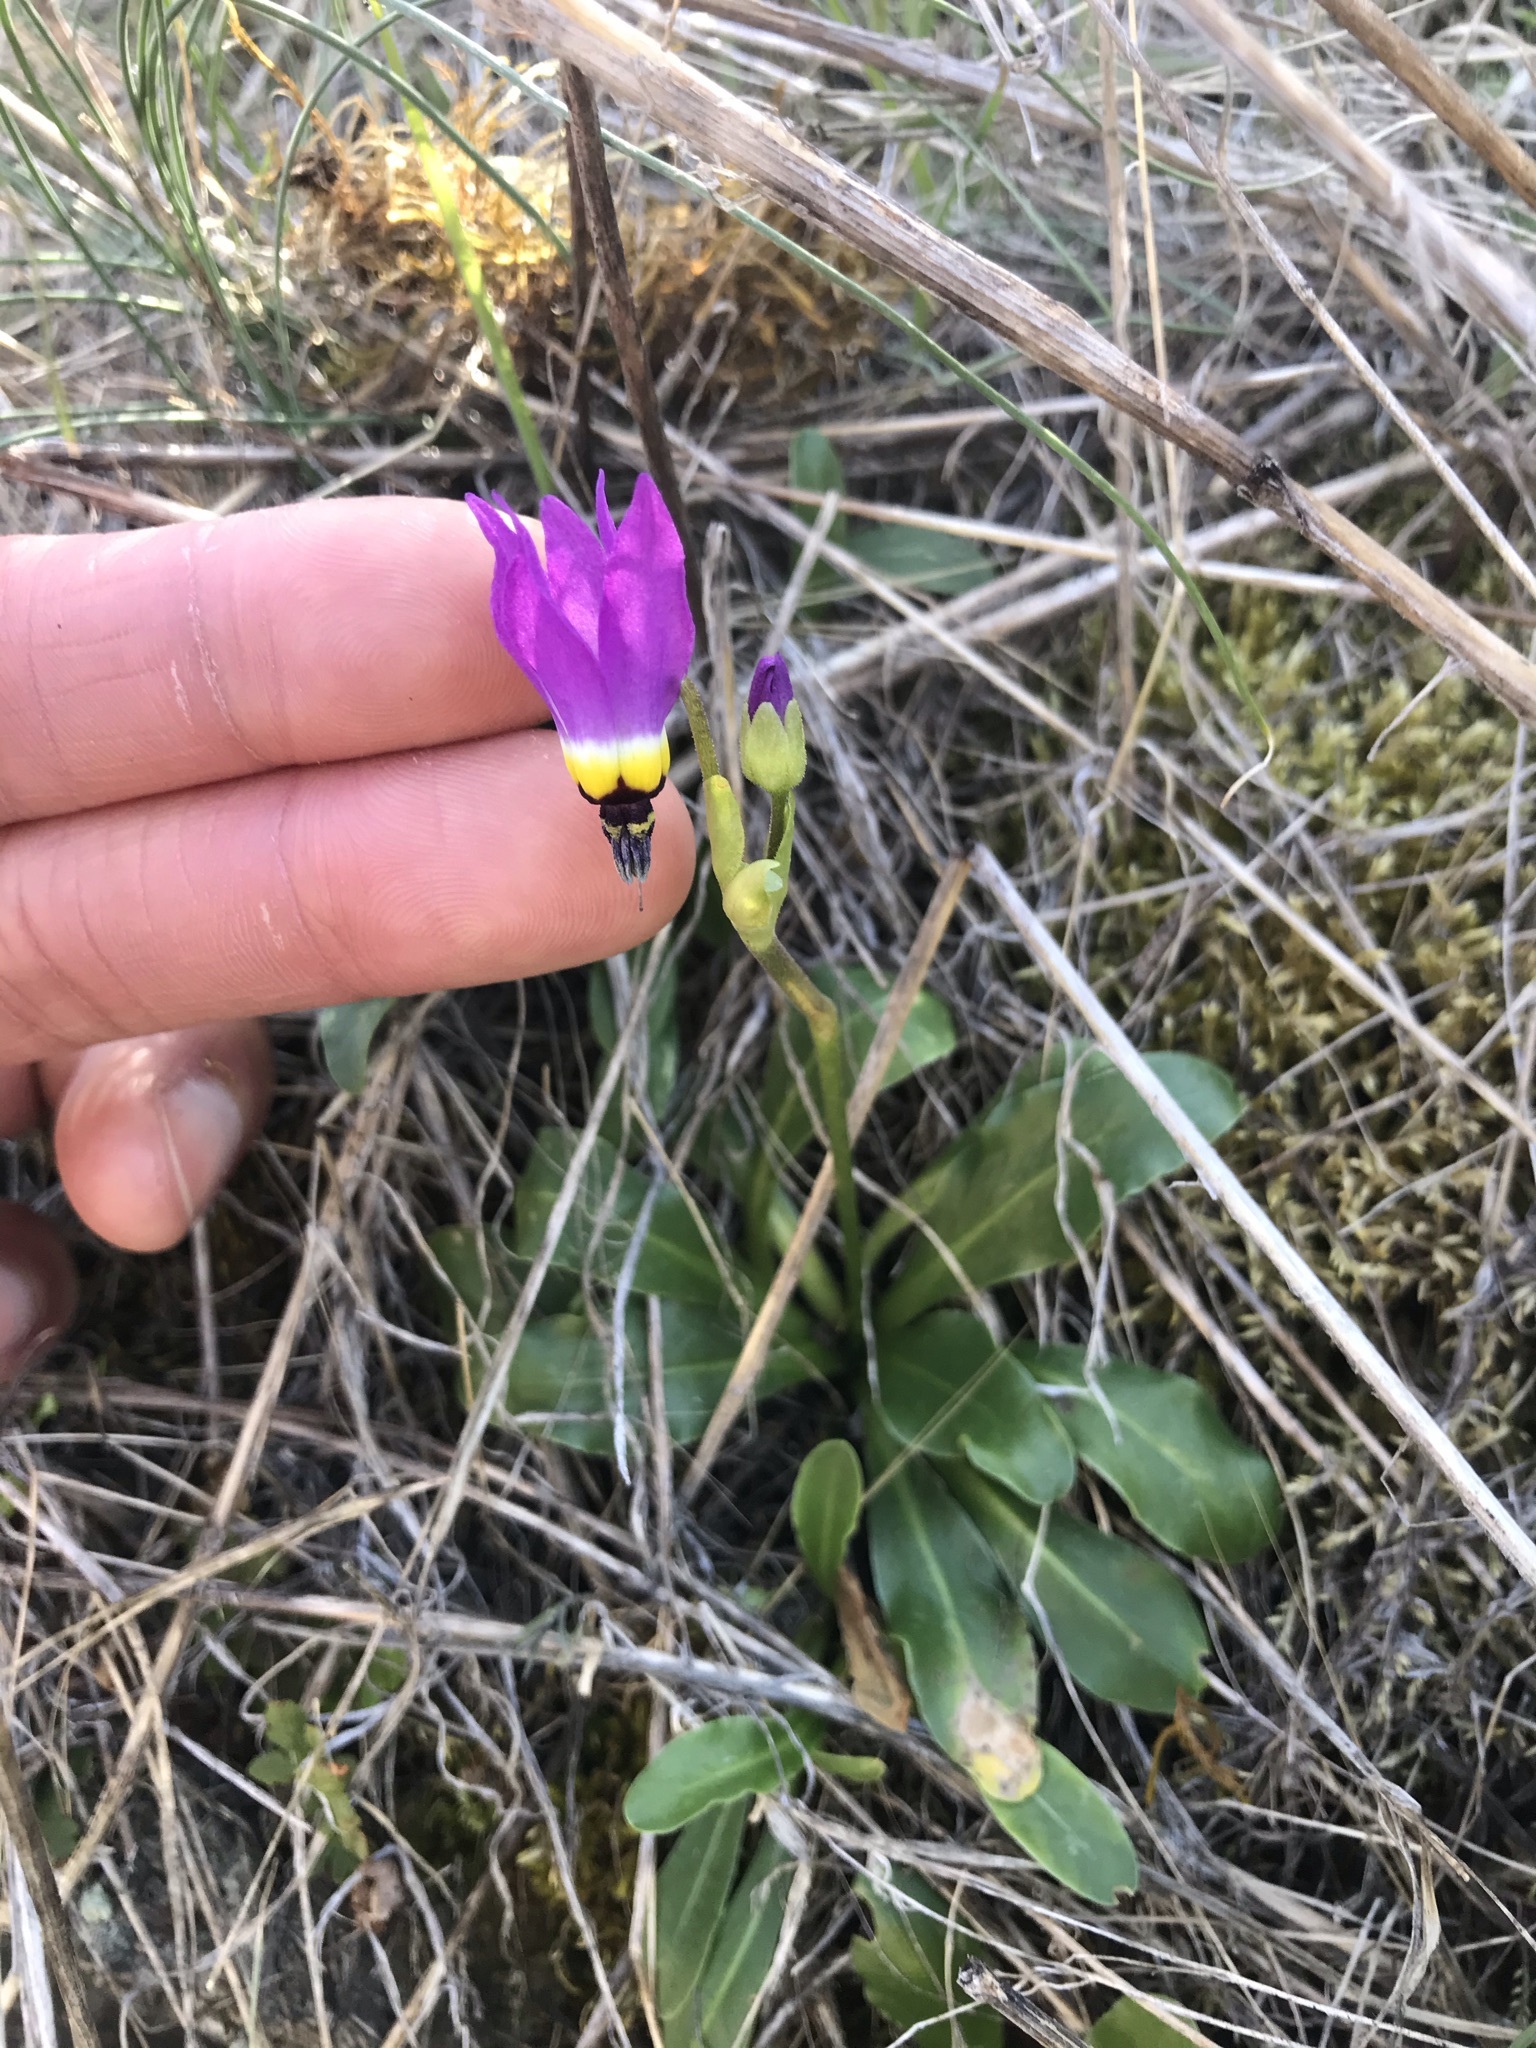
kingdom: Plantae
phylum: Tracheophyta
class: Magnoliopsida
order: Ericales
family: Primulaceae
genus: Dodecatheon
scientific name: Dodecatheon clevelandii
